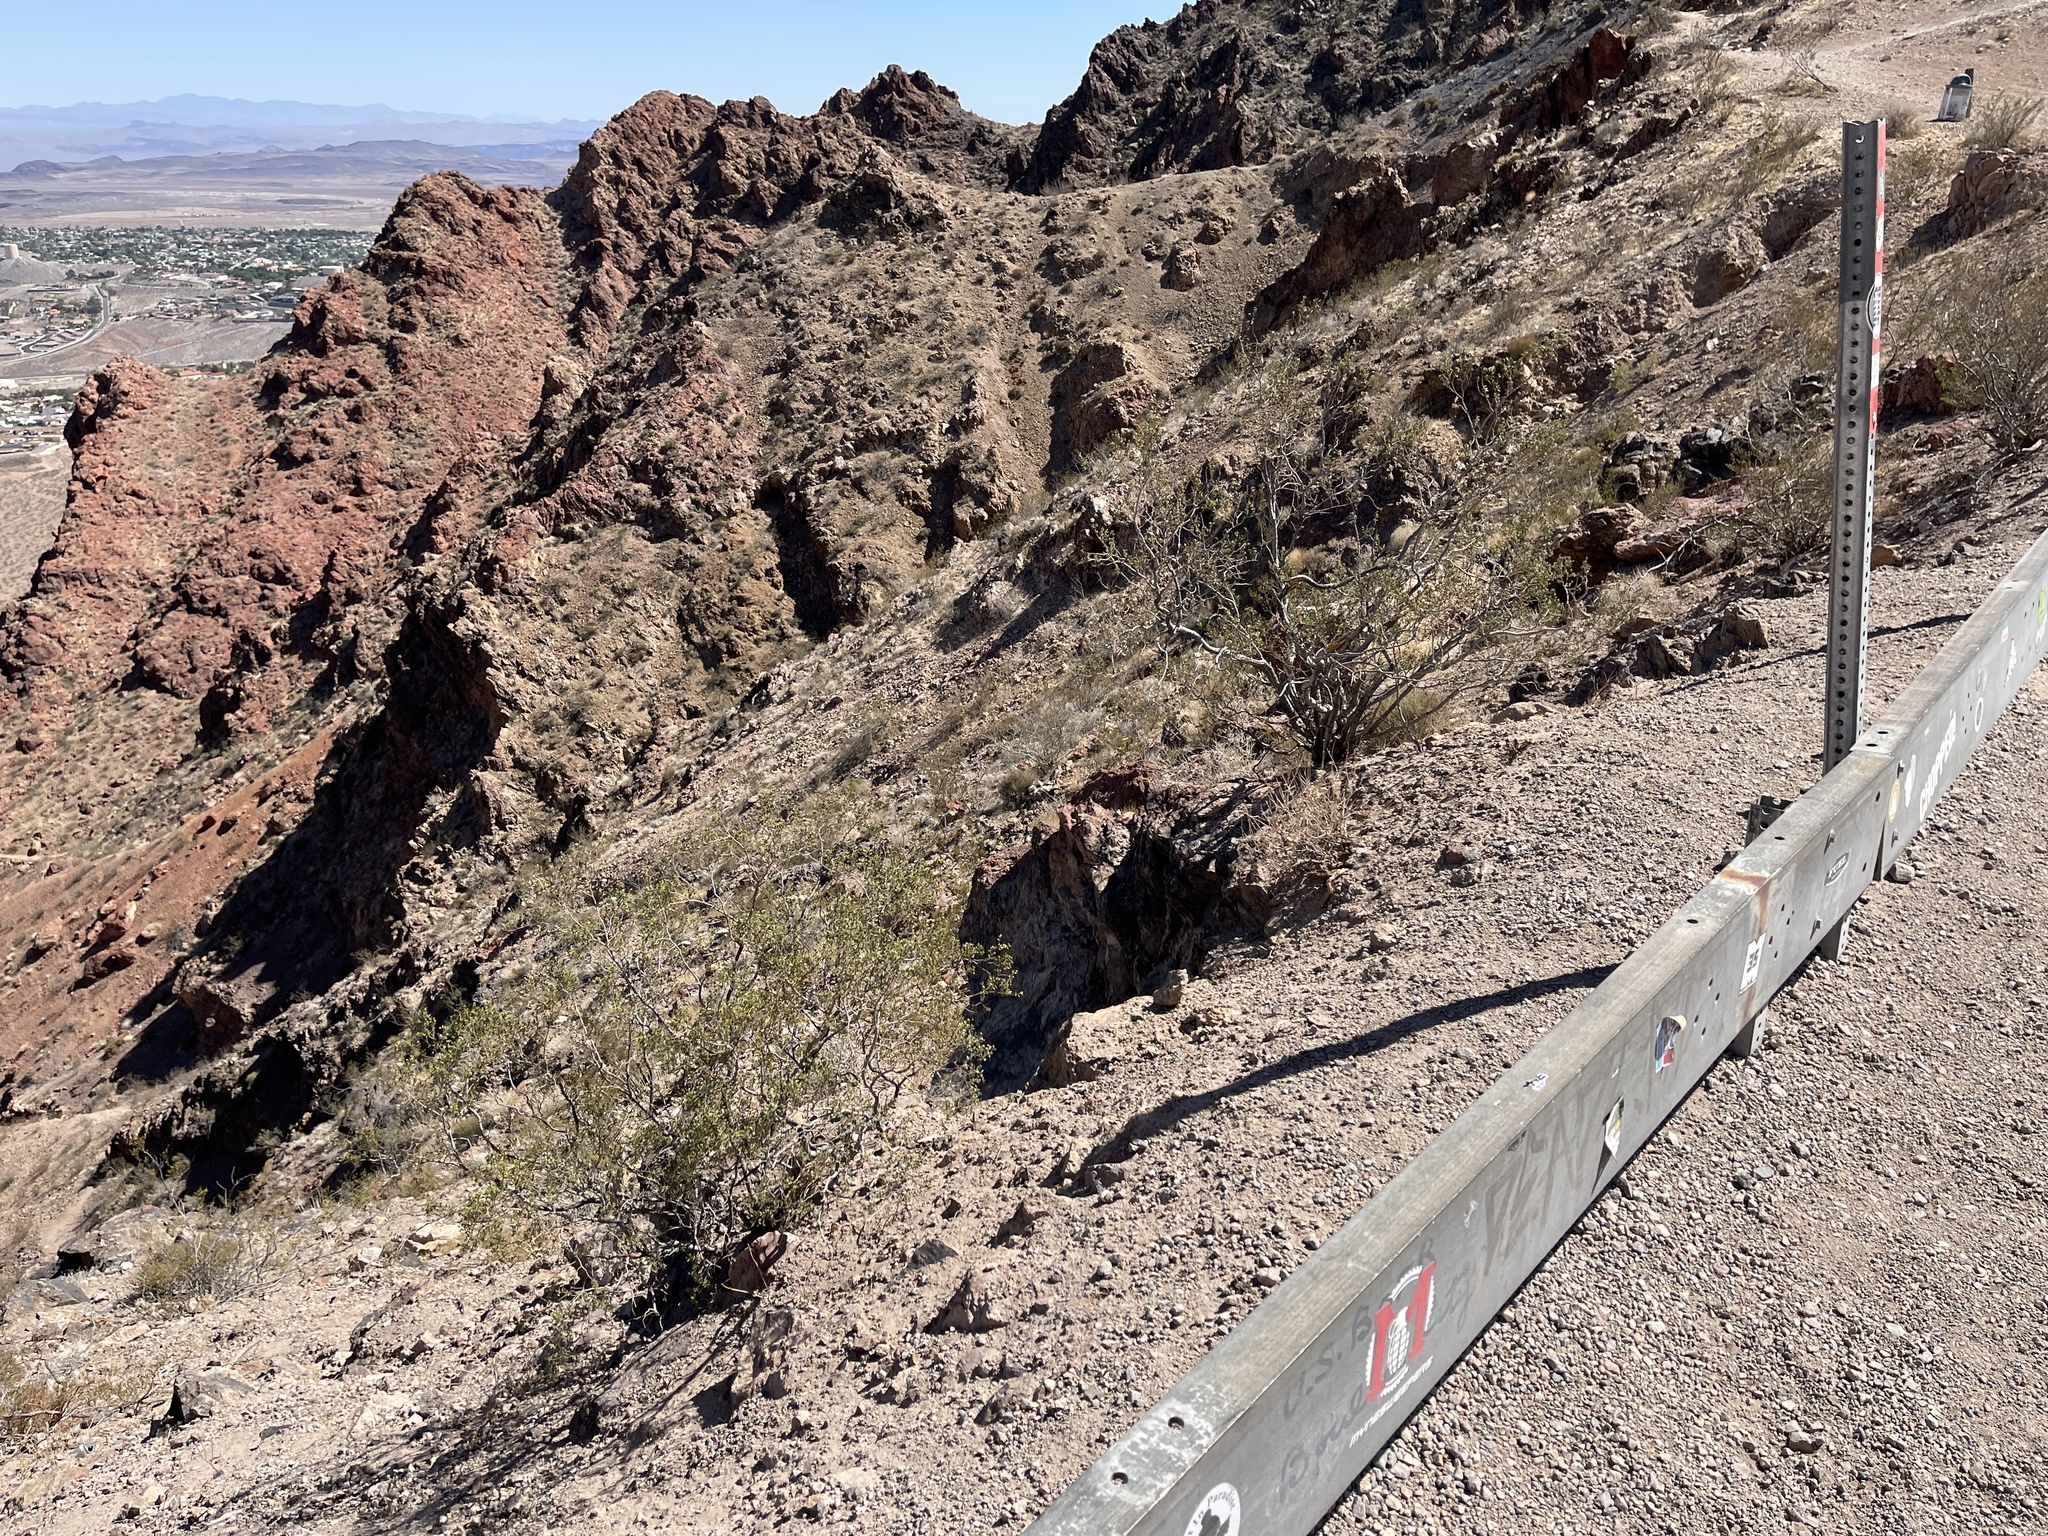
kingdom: Plantae
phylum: Tracheophyta
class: Magnoliopsida
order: Zygophyllales
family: Zygophyllaceae
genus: Larrea
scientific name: Larrea tridentata
